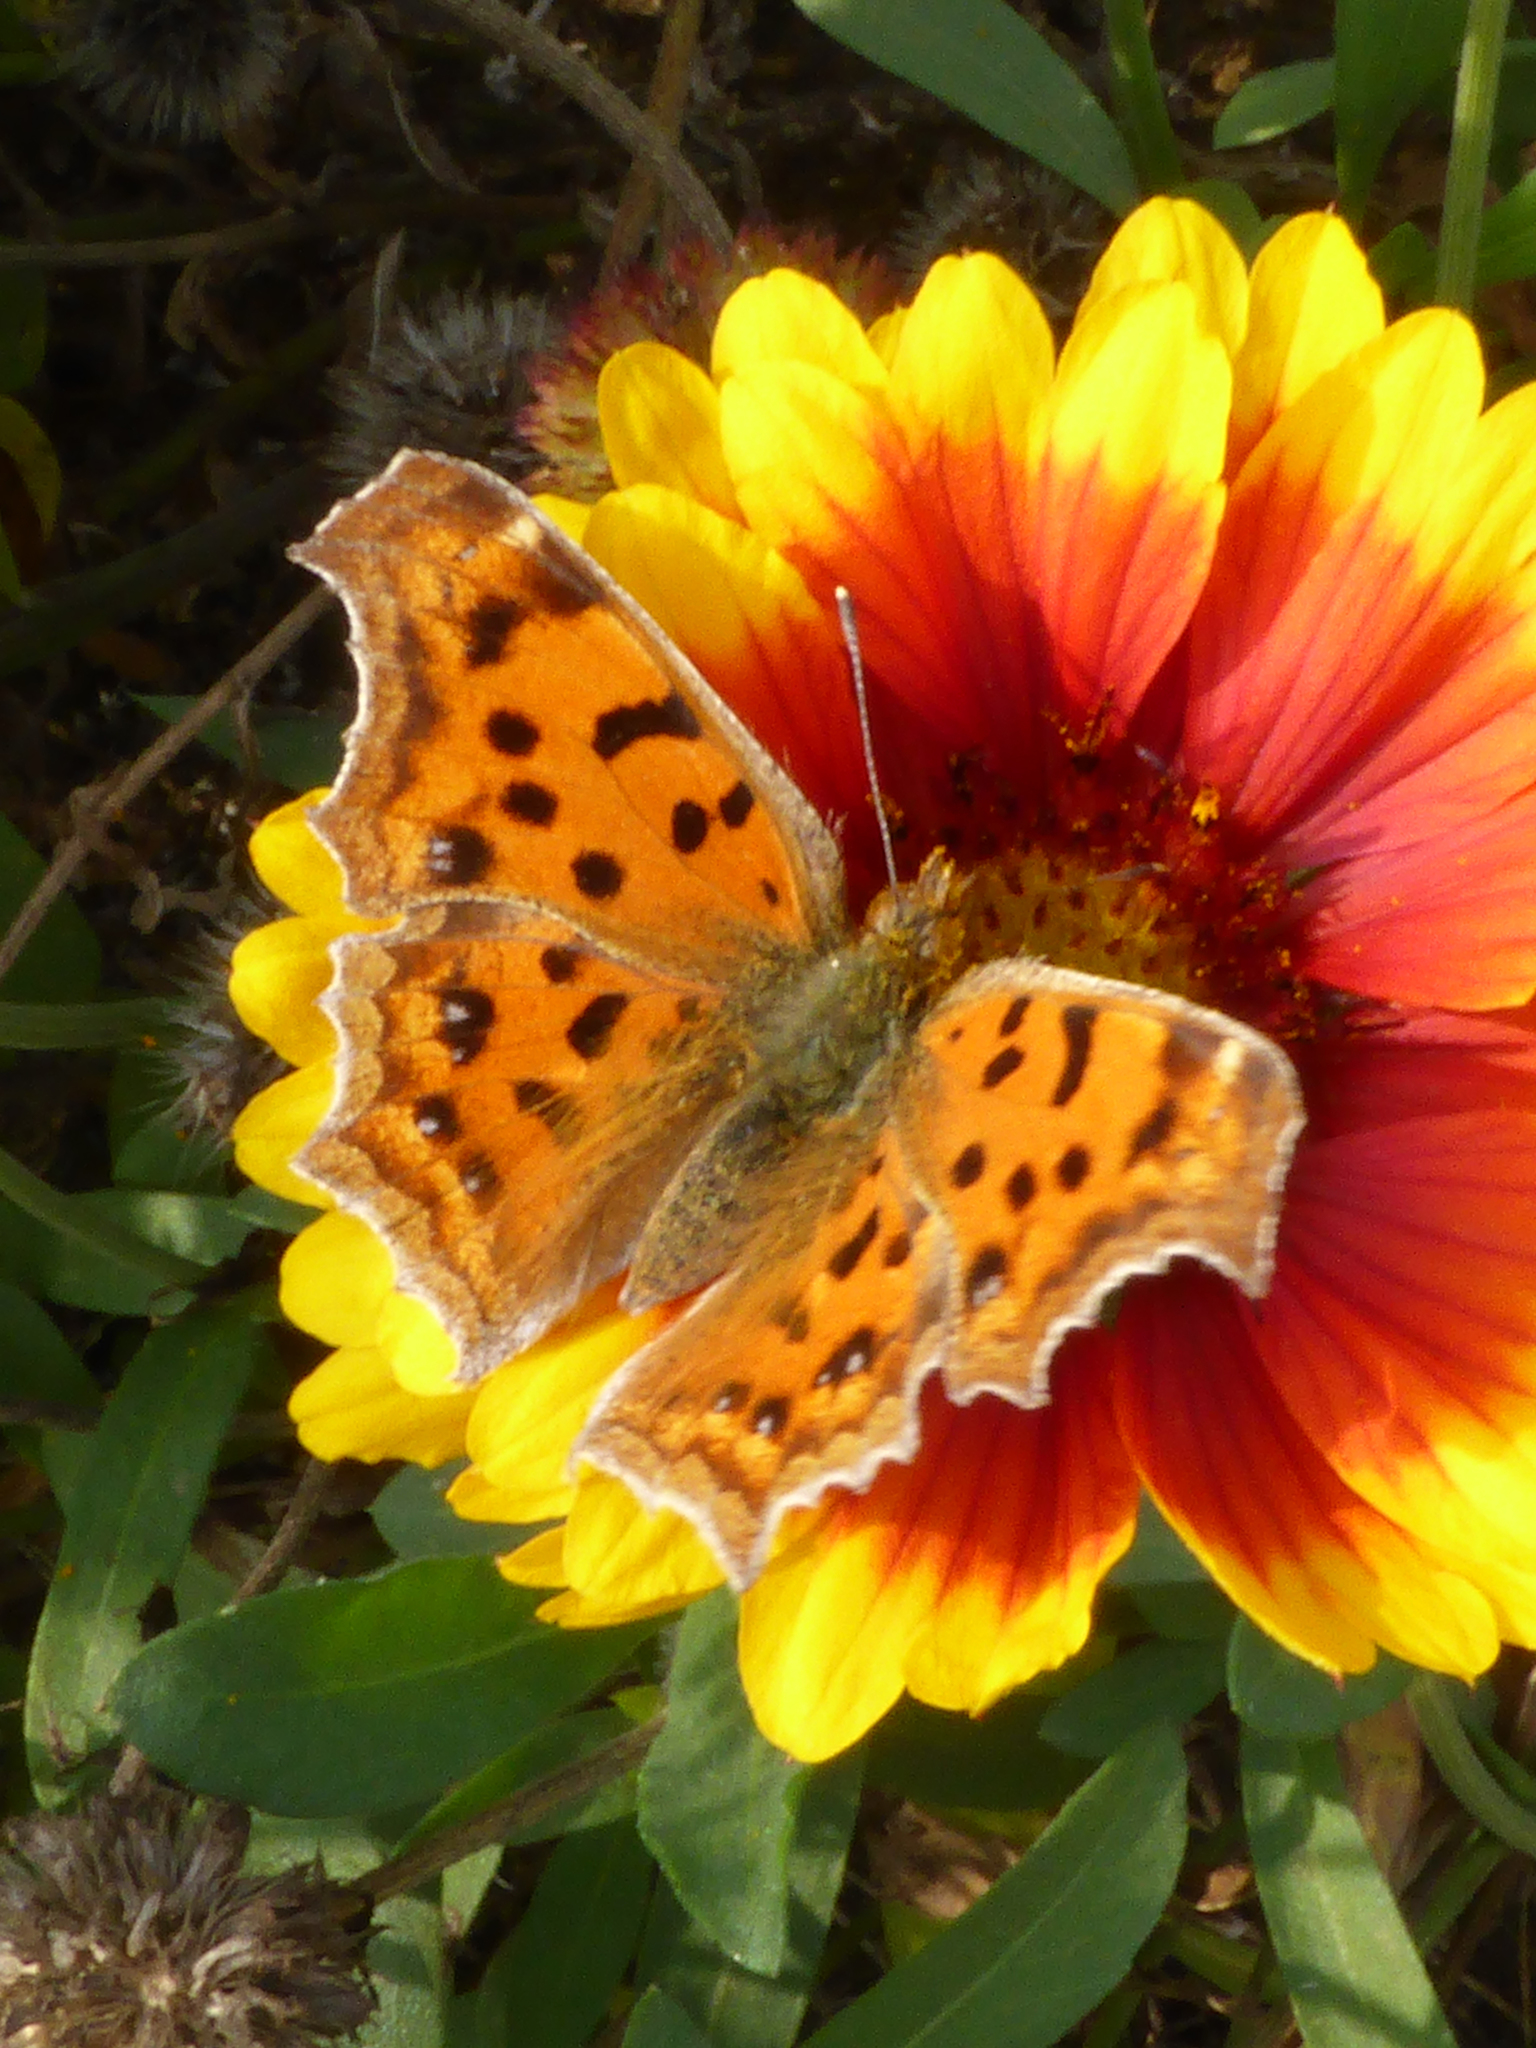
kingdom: Animalia
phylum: Arthropoda
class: Insecta
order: Lepidoptera
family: Nymphalidae
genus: Polygonia
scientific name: Polygonia c-aureum
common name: Asian comma
